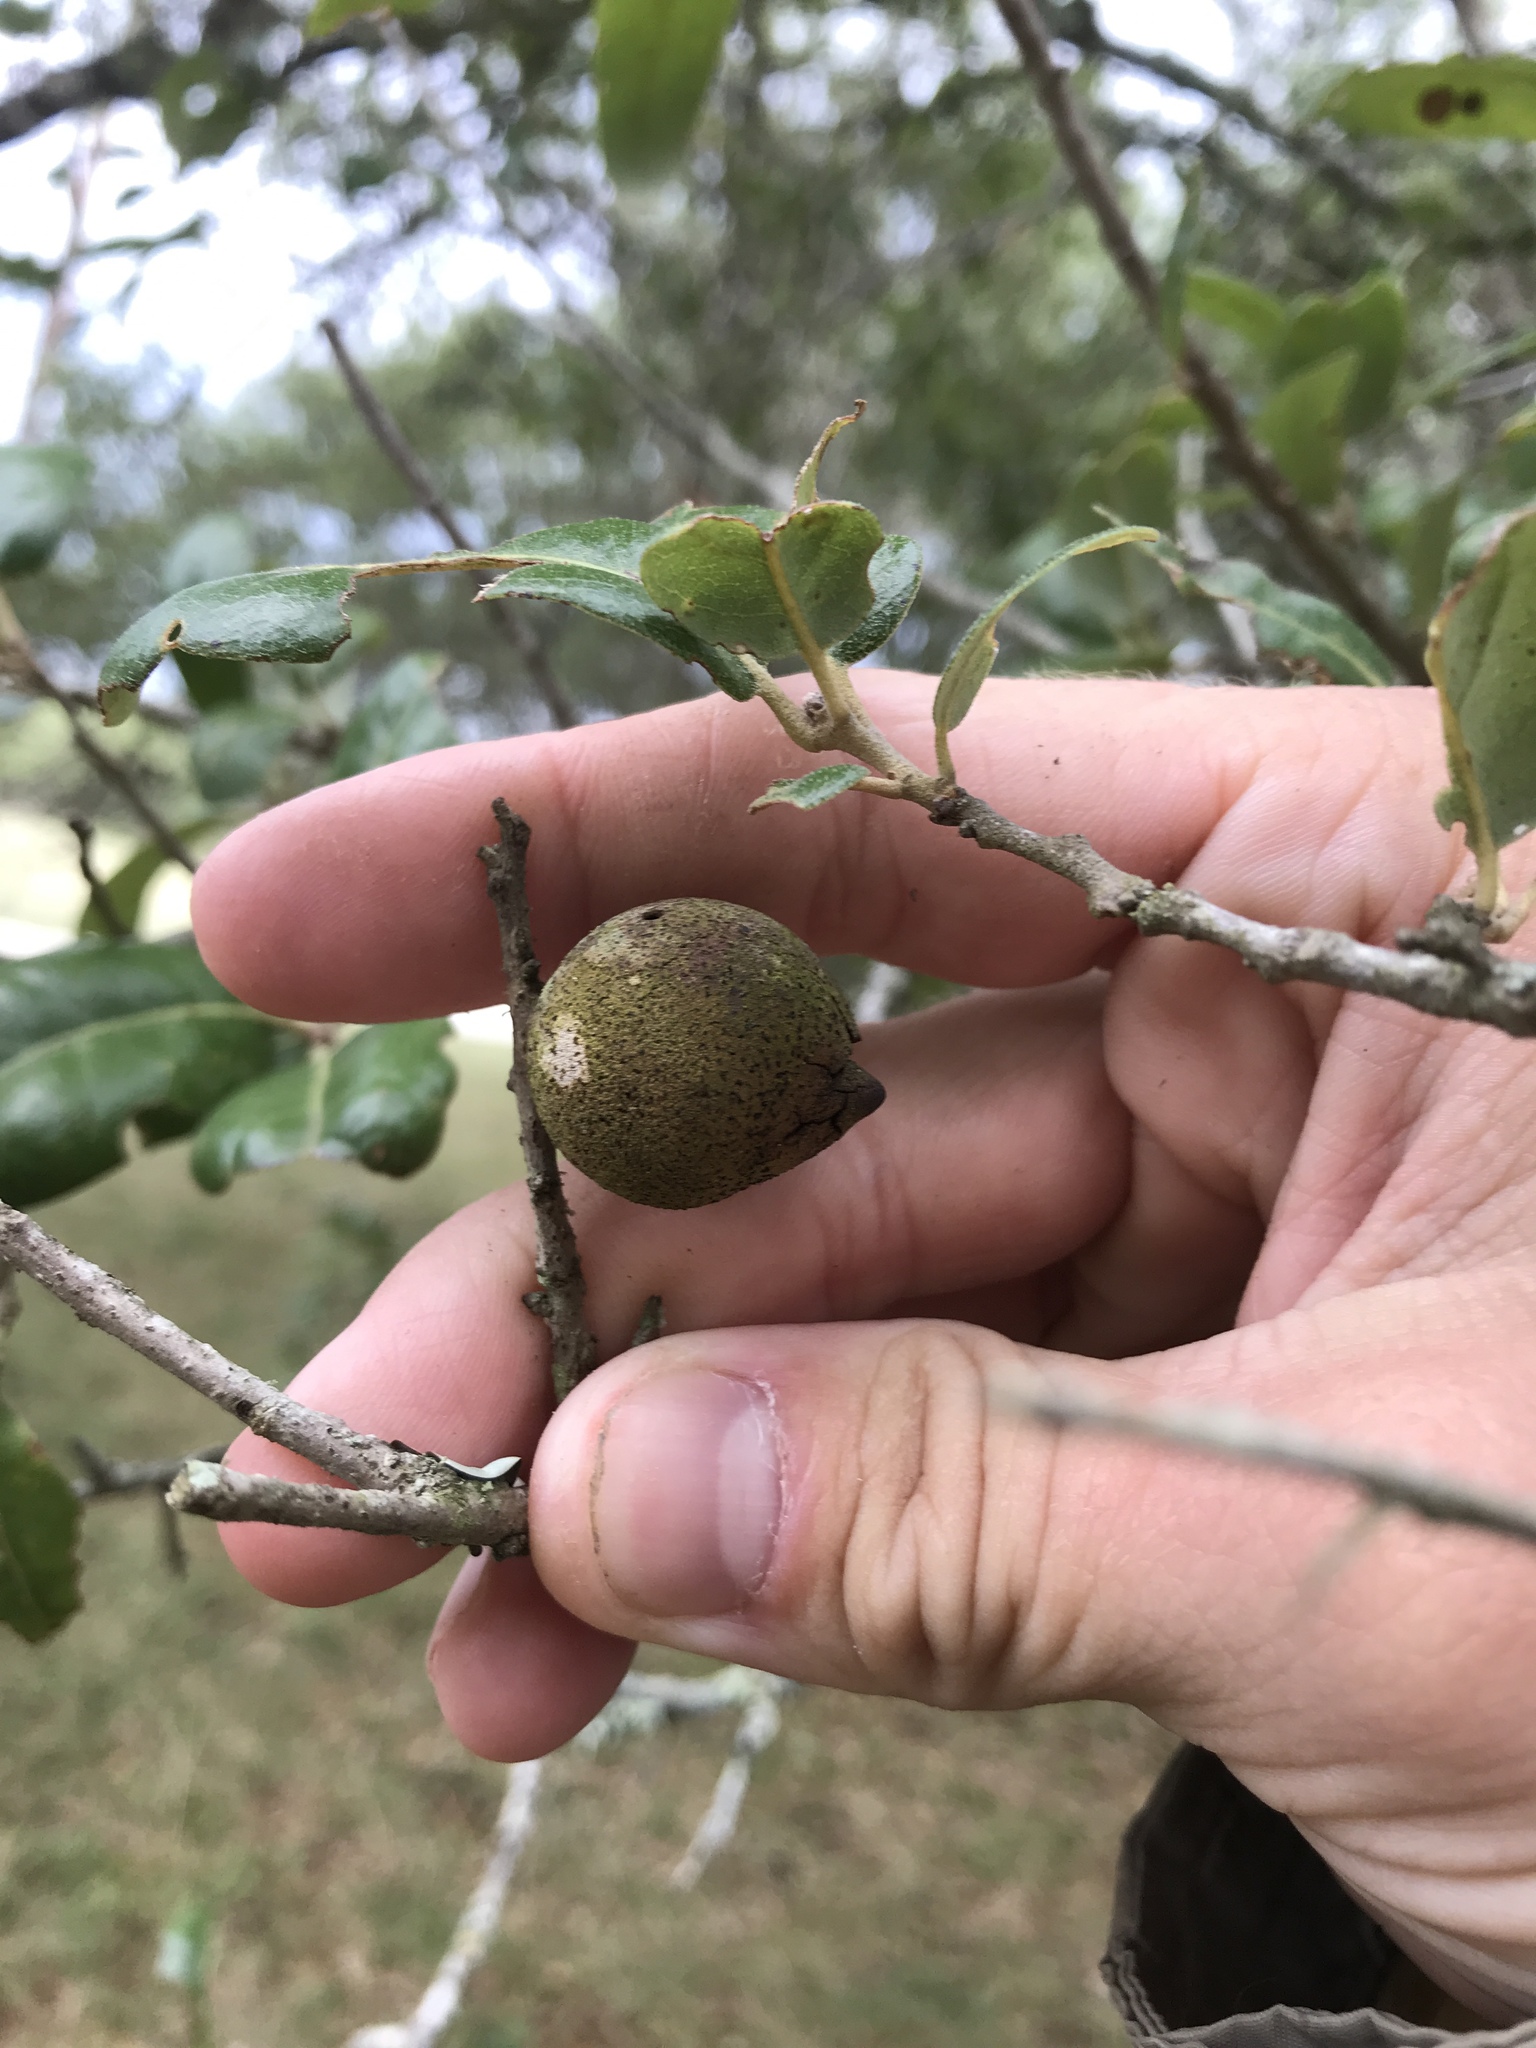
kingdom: Animalia
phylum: Arthropoda
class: Insecta
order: Hymenoptera
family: Cynipidae
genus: Disholcaspis
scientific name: Disholcaspis
